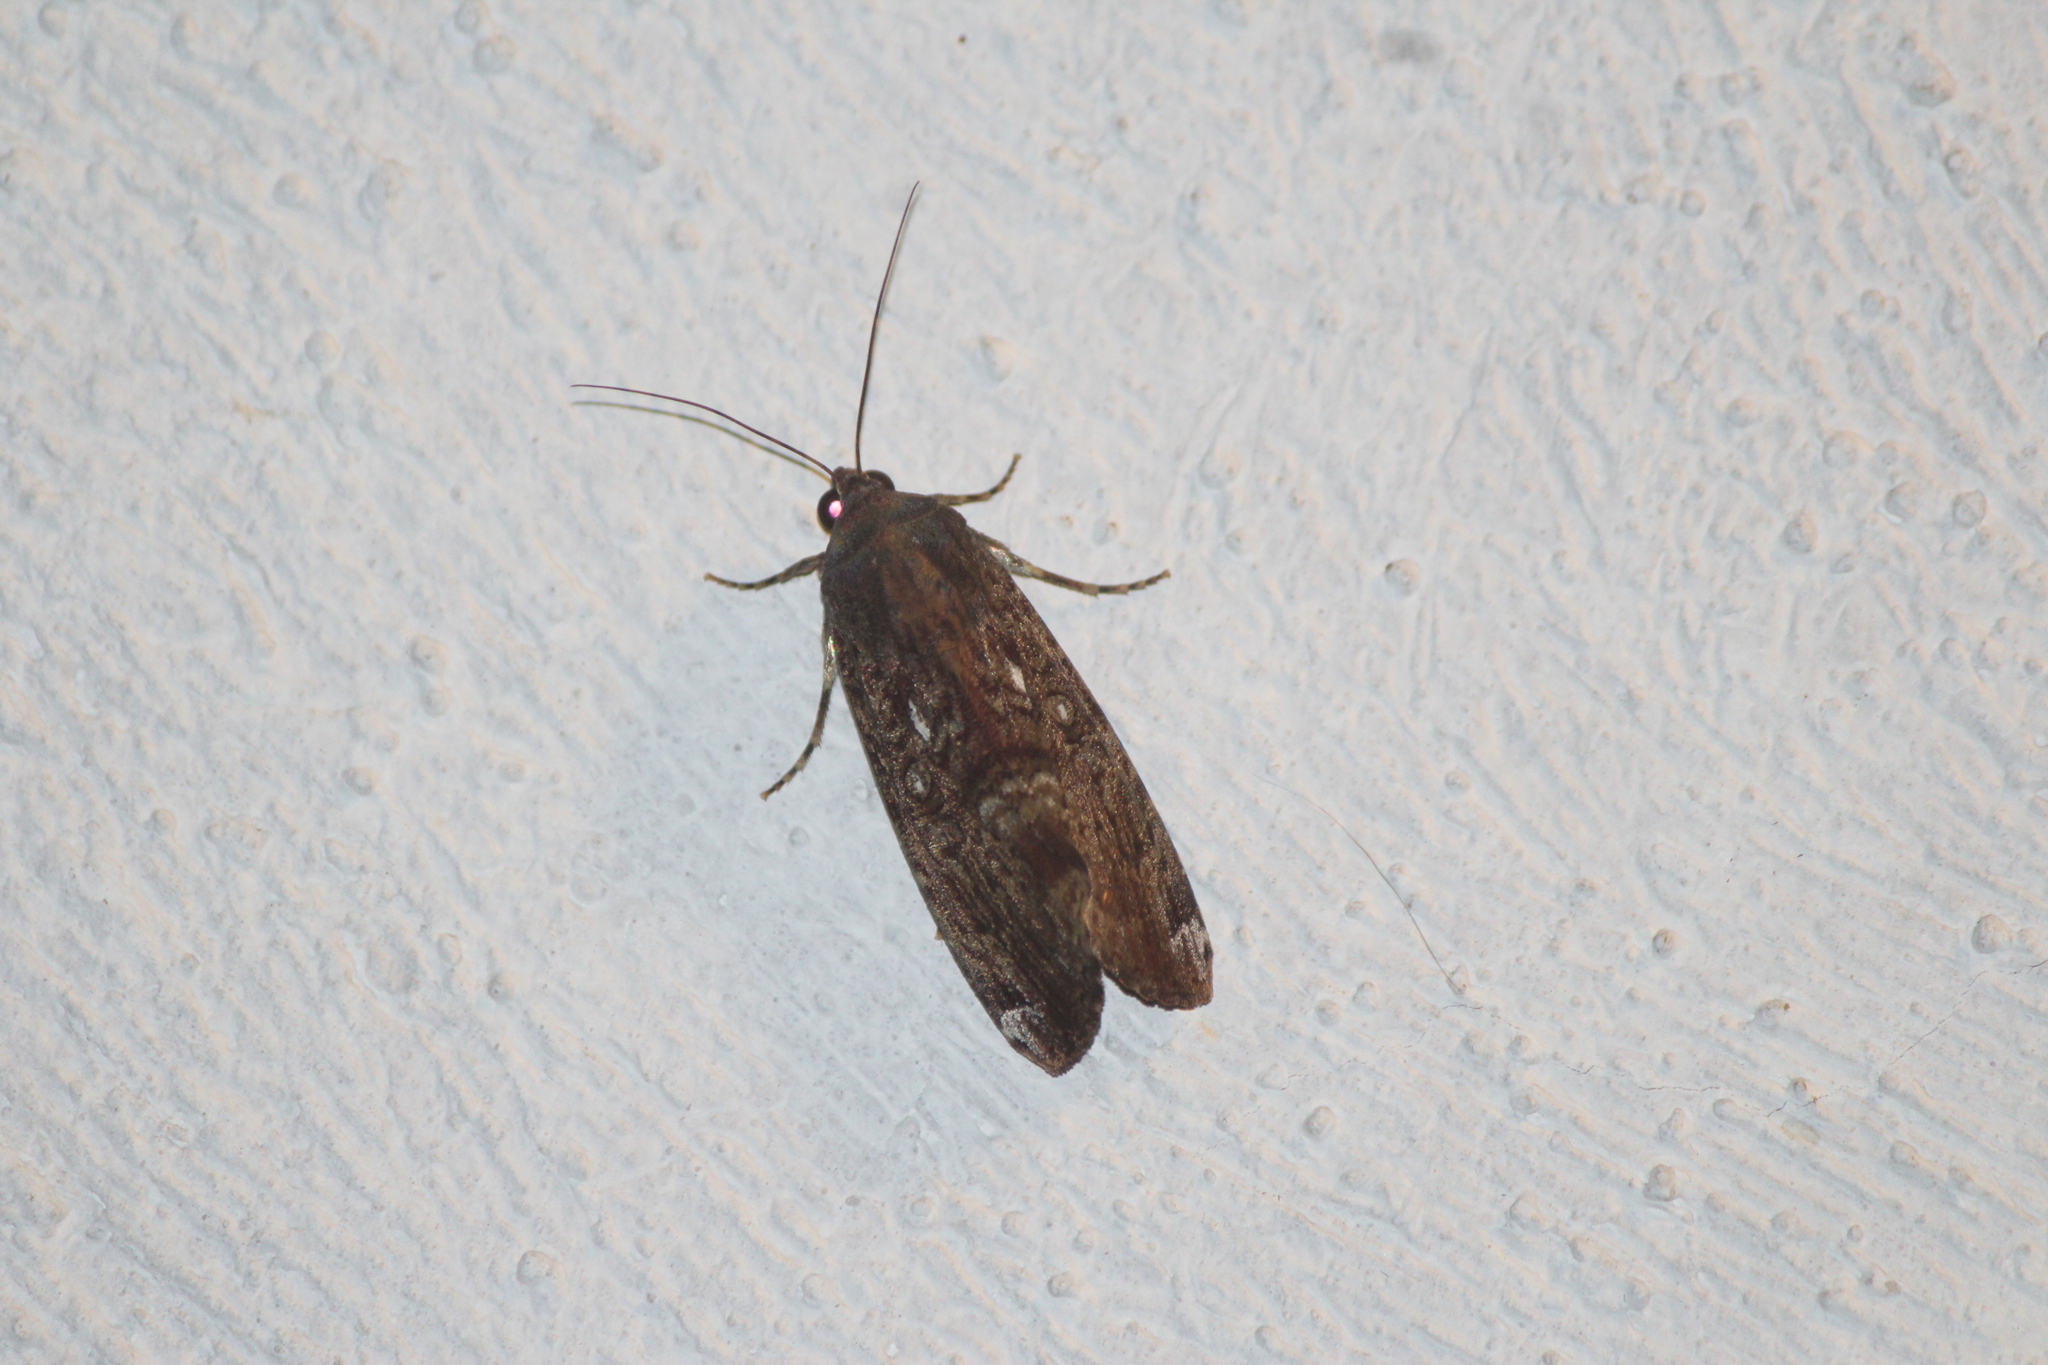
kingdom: Animalia
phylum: Arthropoda
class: Insecta
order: Lepidoptera
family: Noctuidae
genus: Magusa
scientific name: Magusa divaricata
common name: Orb narrow-winged moth
